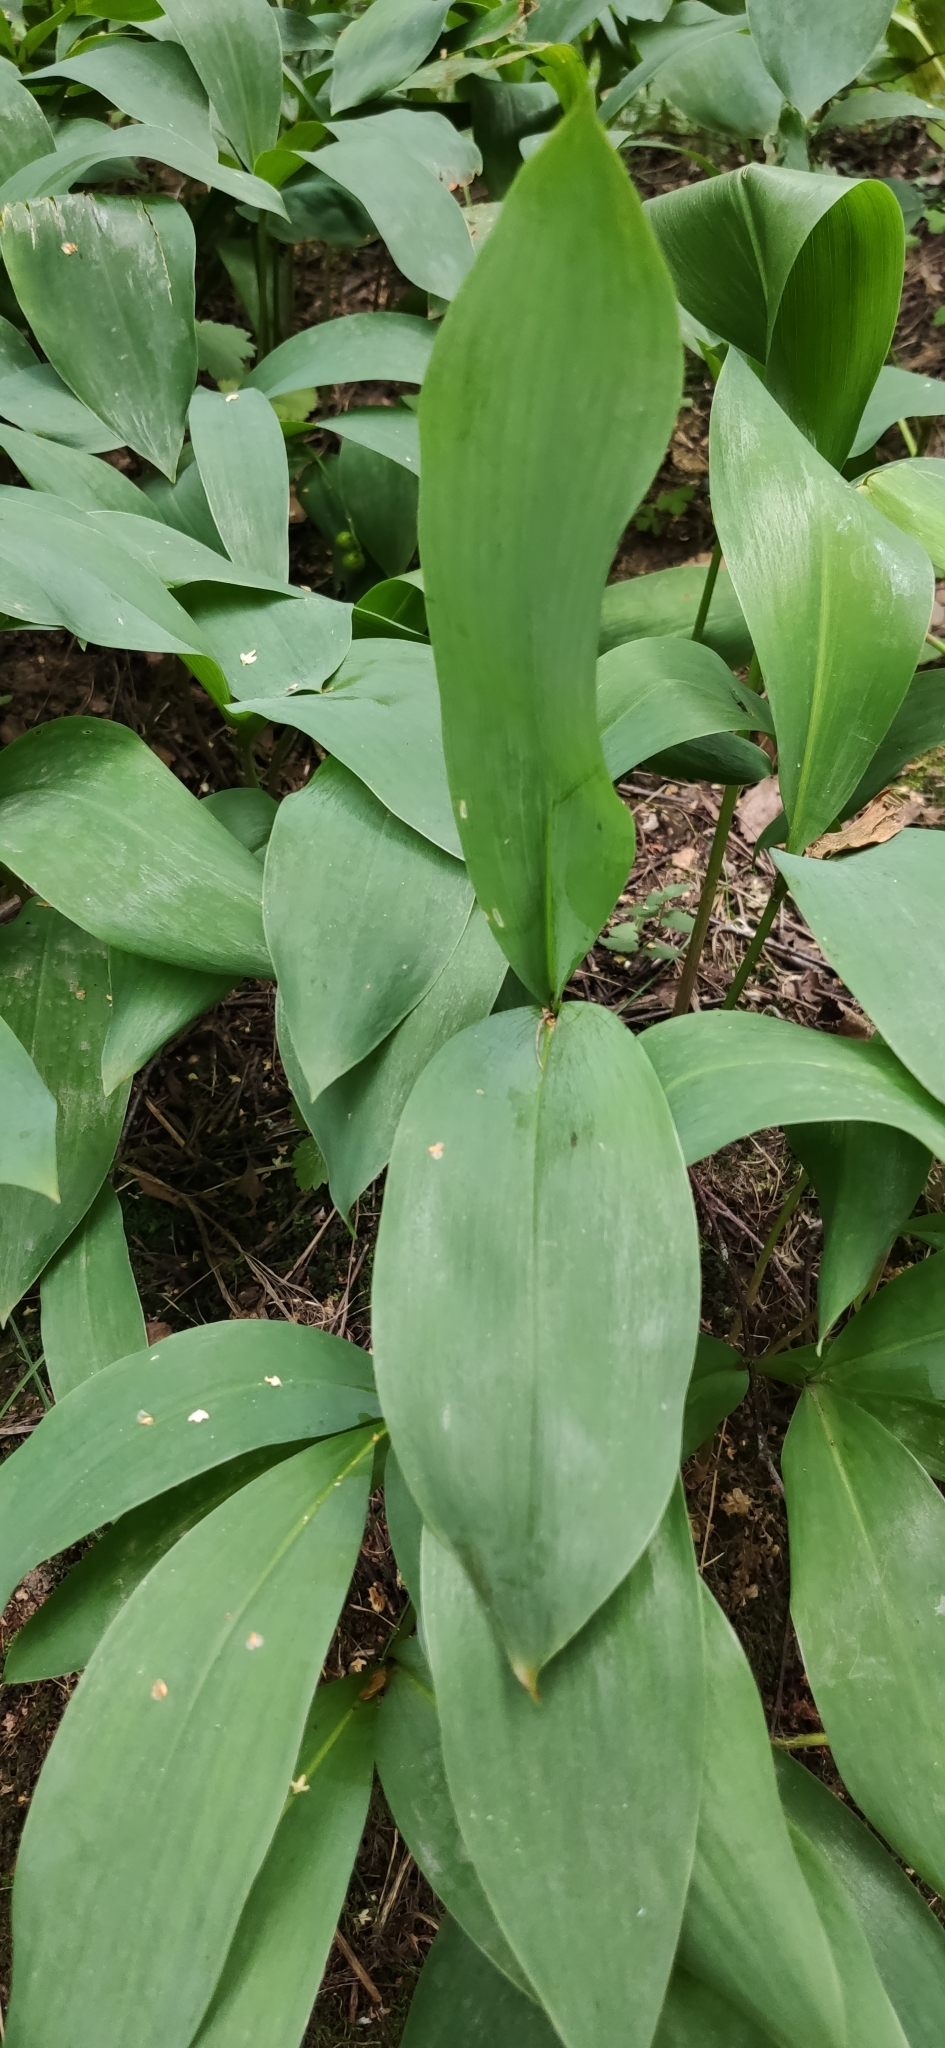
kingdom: Plantae
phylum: Tracheophyta
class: Liliopsida
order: Asparagales
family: Asparagaceae
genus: Convallaria
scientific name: Convallaria majalis
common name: Lily-of-the-valley
